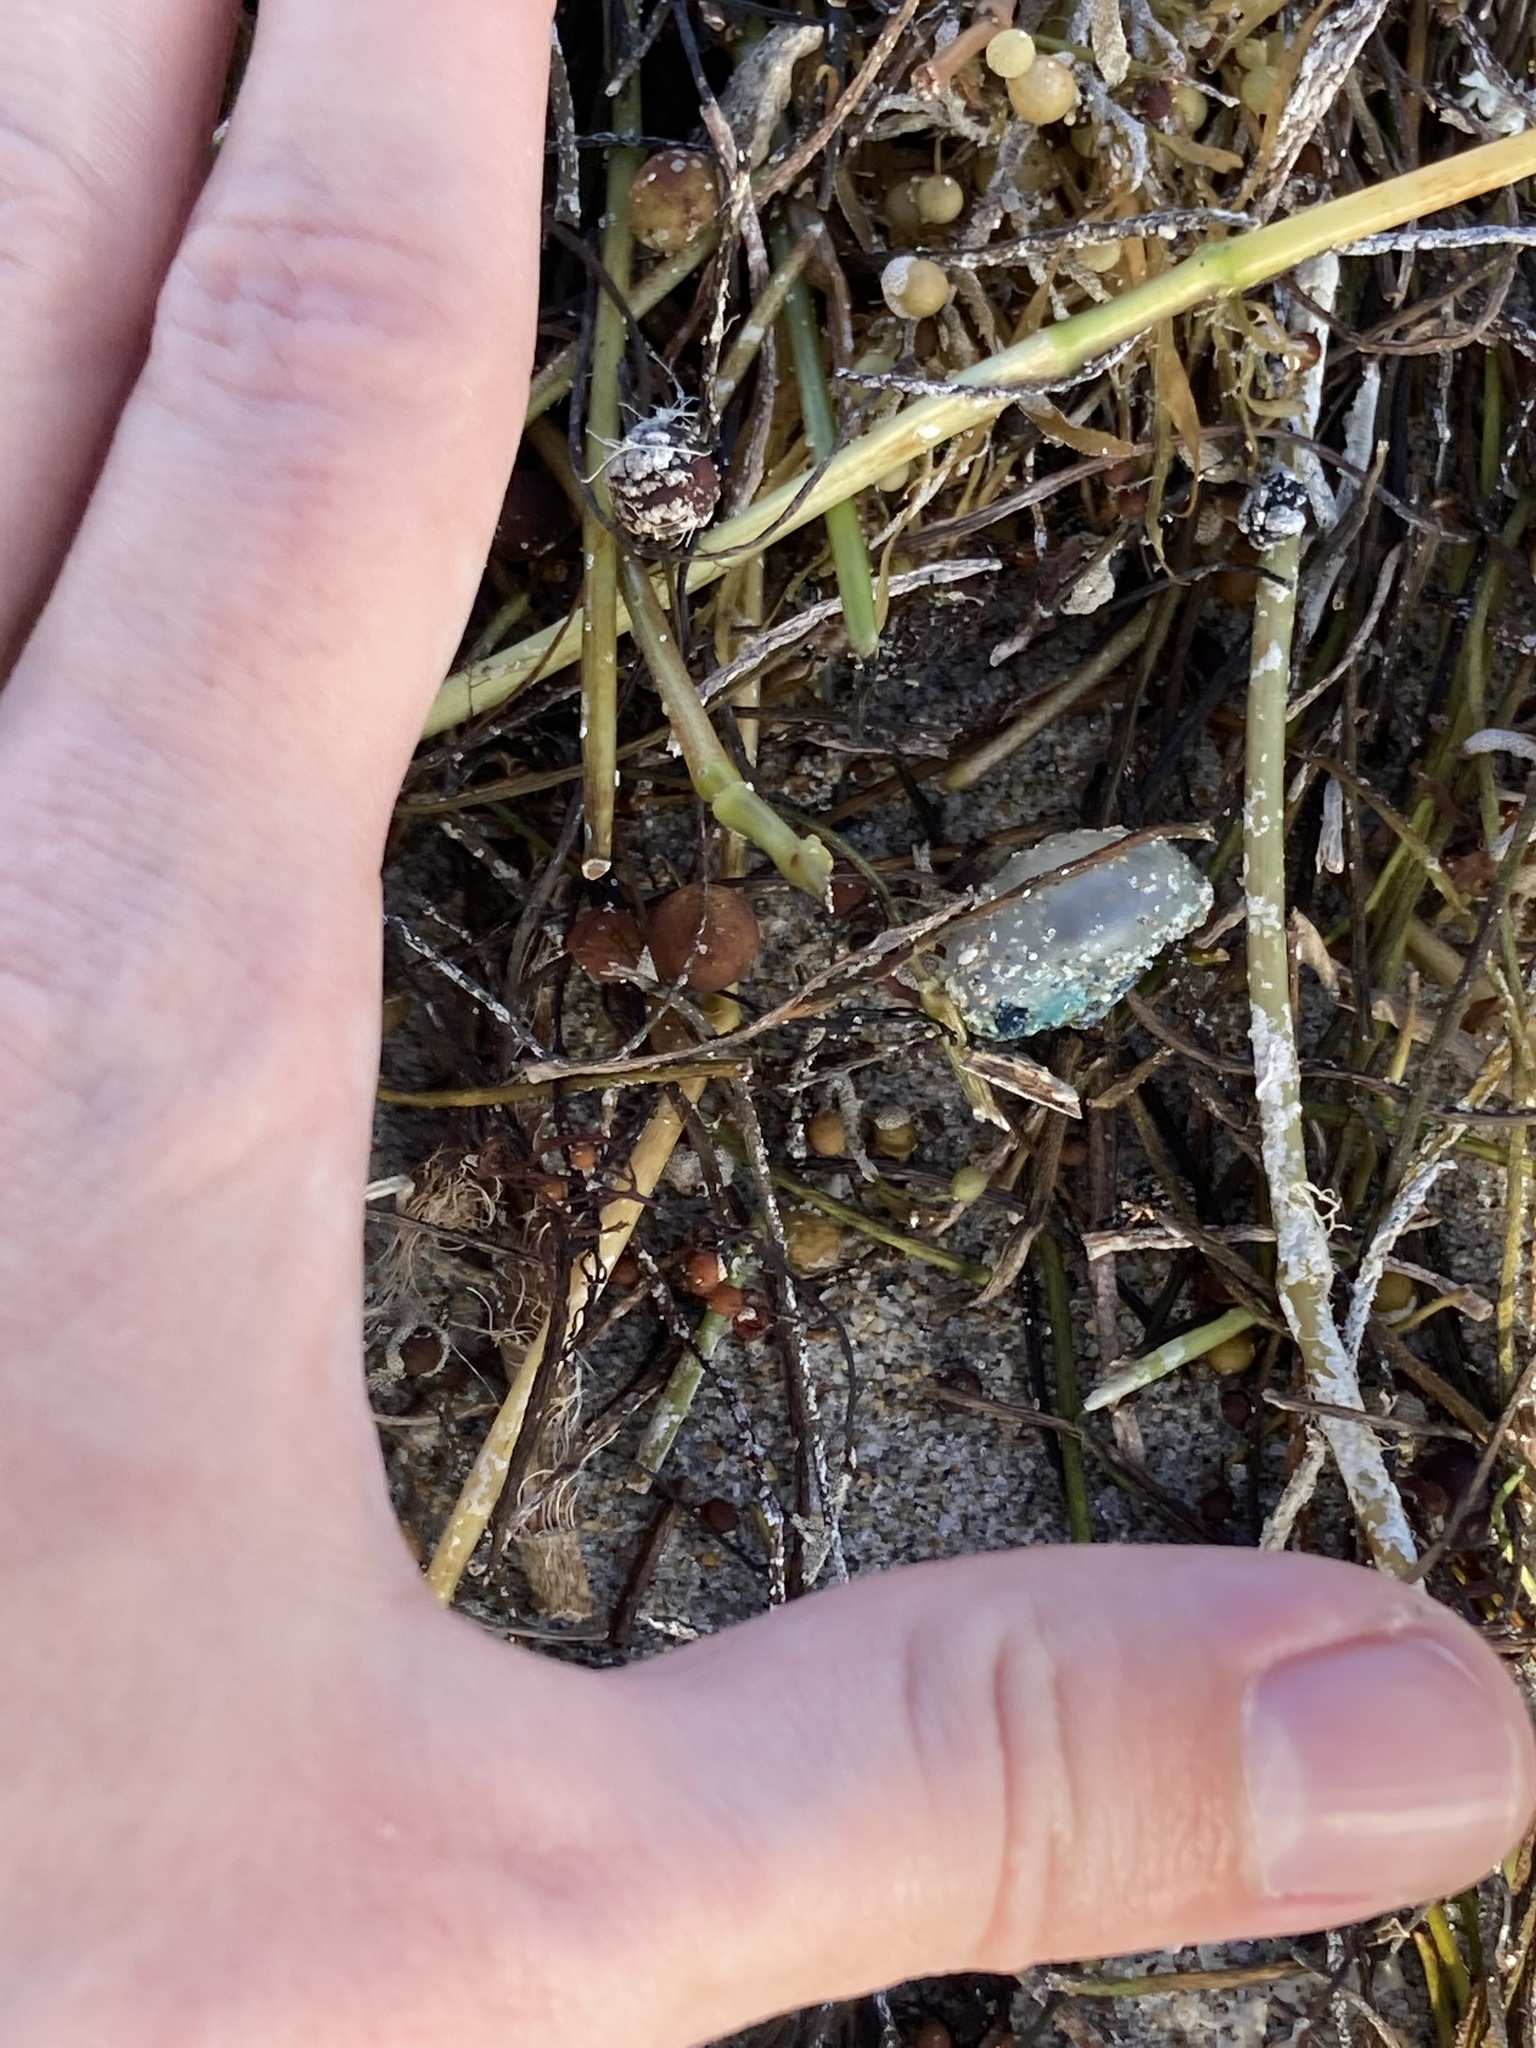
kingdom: Animalia
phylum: Cnidaria
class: Hydrozoa
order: Siphonophorae
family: Physaliidae
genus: Physalia
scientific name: Physalia physalis
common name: Portuguese man-of-war
